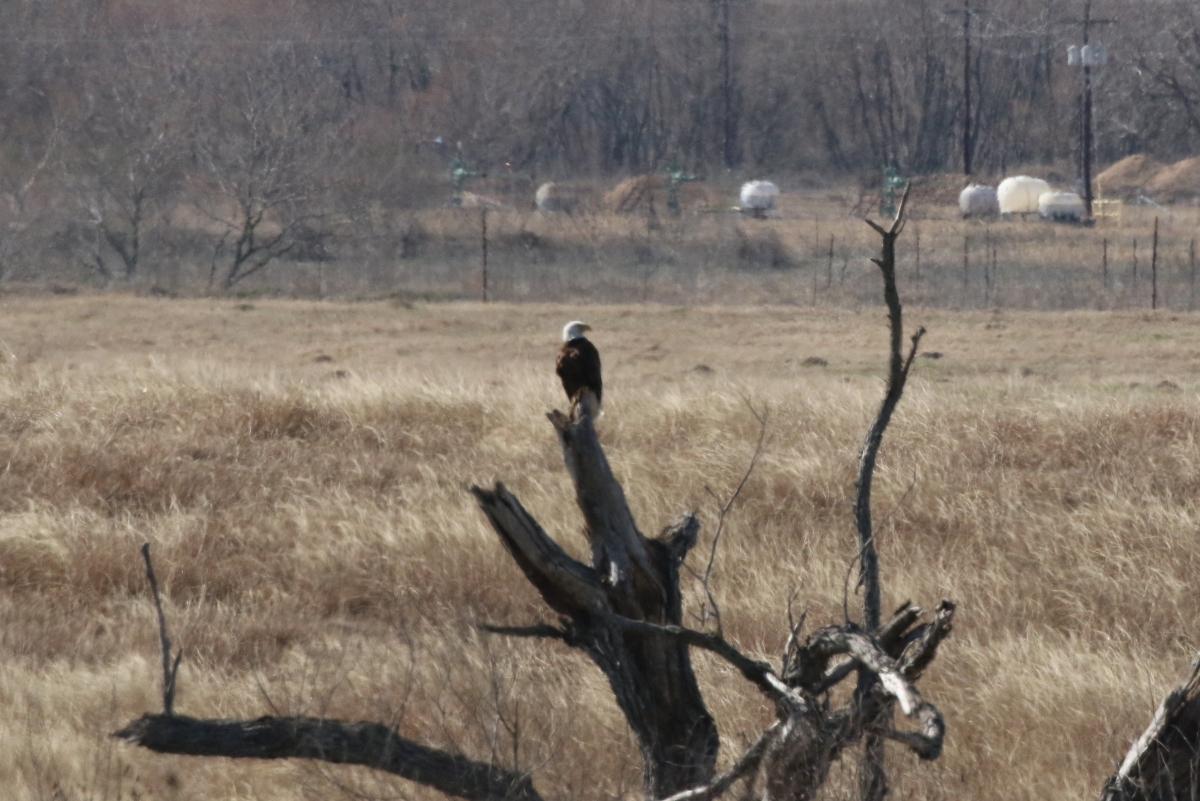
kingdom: Animalia
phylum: Chordata
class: Aves
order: Accipitriformes
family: Accipitridae
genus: Haliaeetus
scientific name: Haliaeetus leucocephalus
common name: Bald eagle
